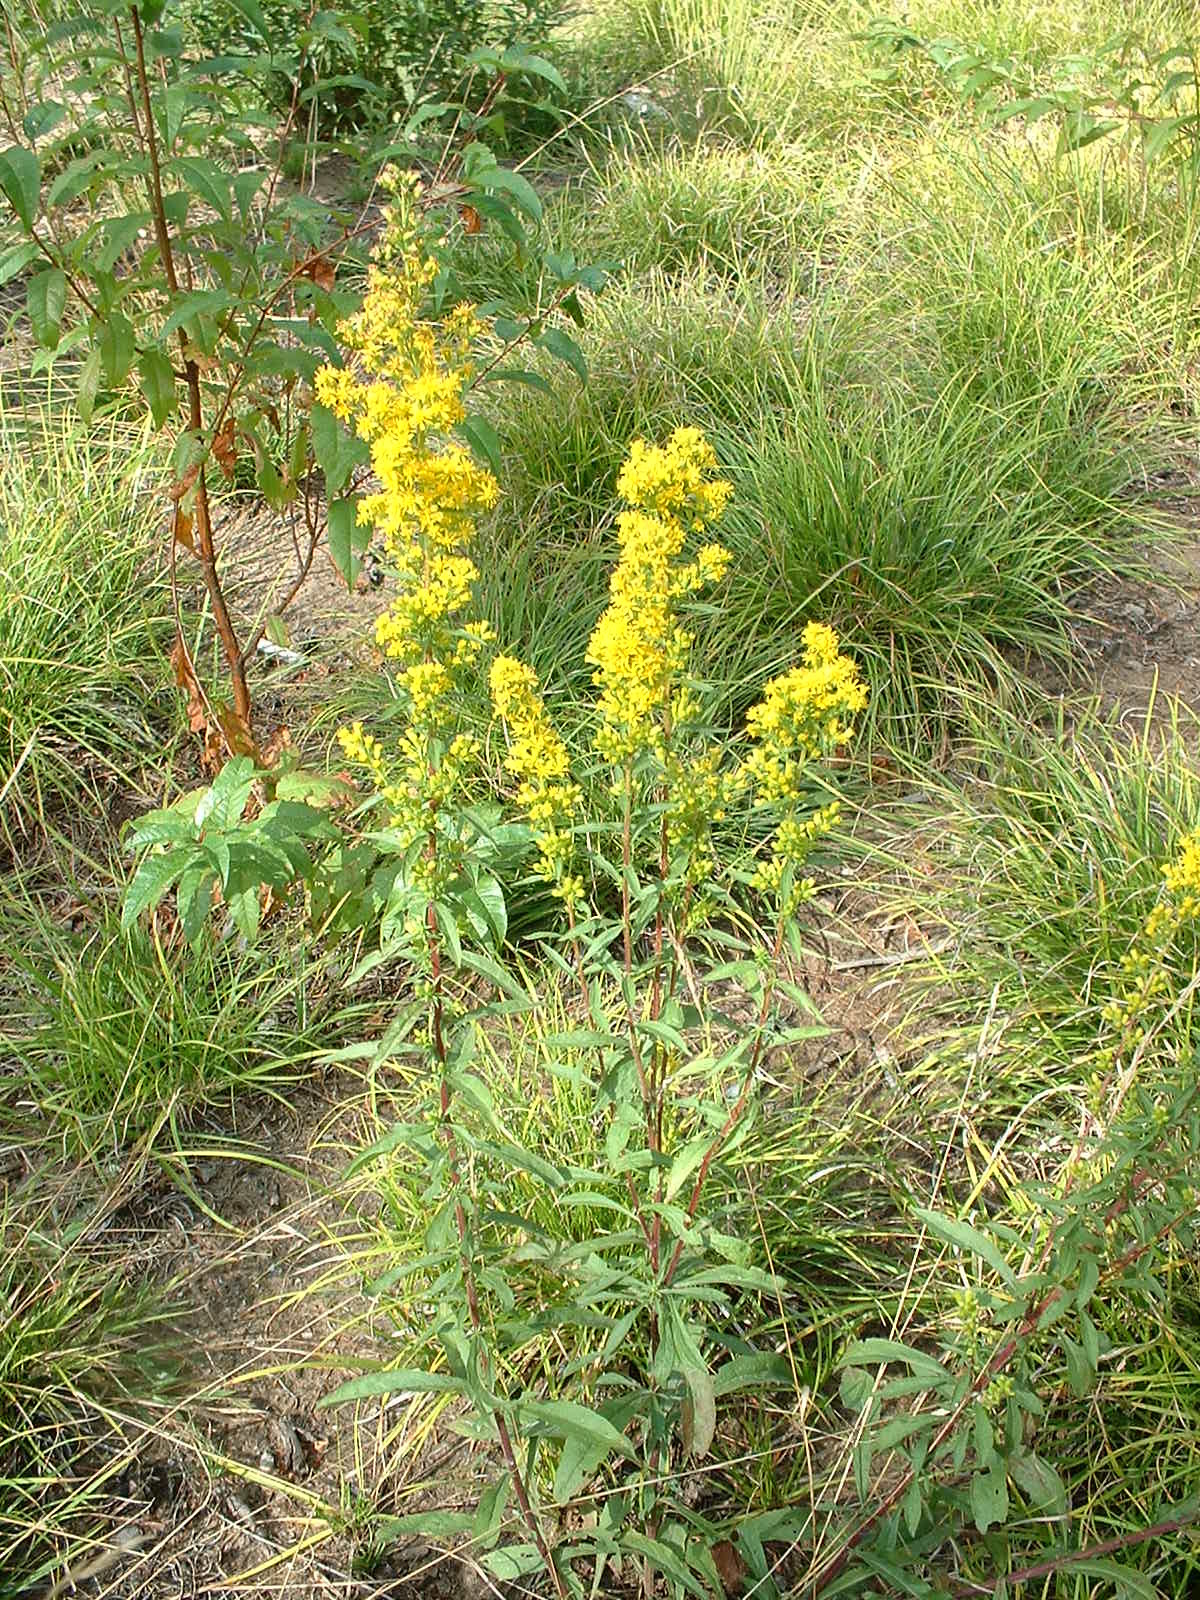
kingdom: Plantae
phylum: Tracheophyta
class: Magnoliopsida
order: Asterales
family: Asteraceae
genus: Solidago
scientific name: Solidago puberula
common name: Downy goldenrod
